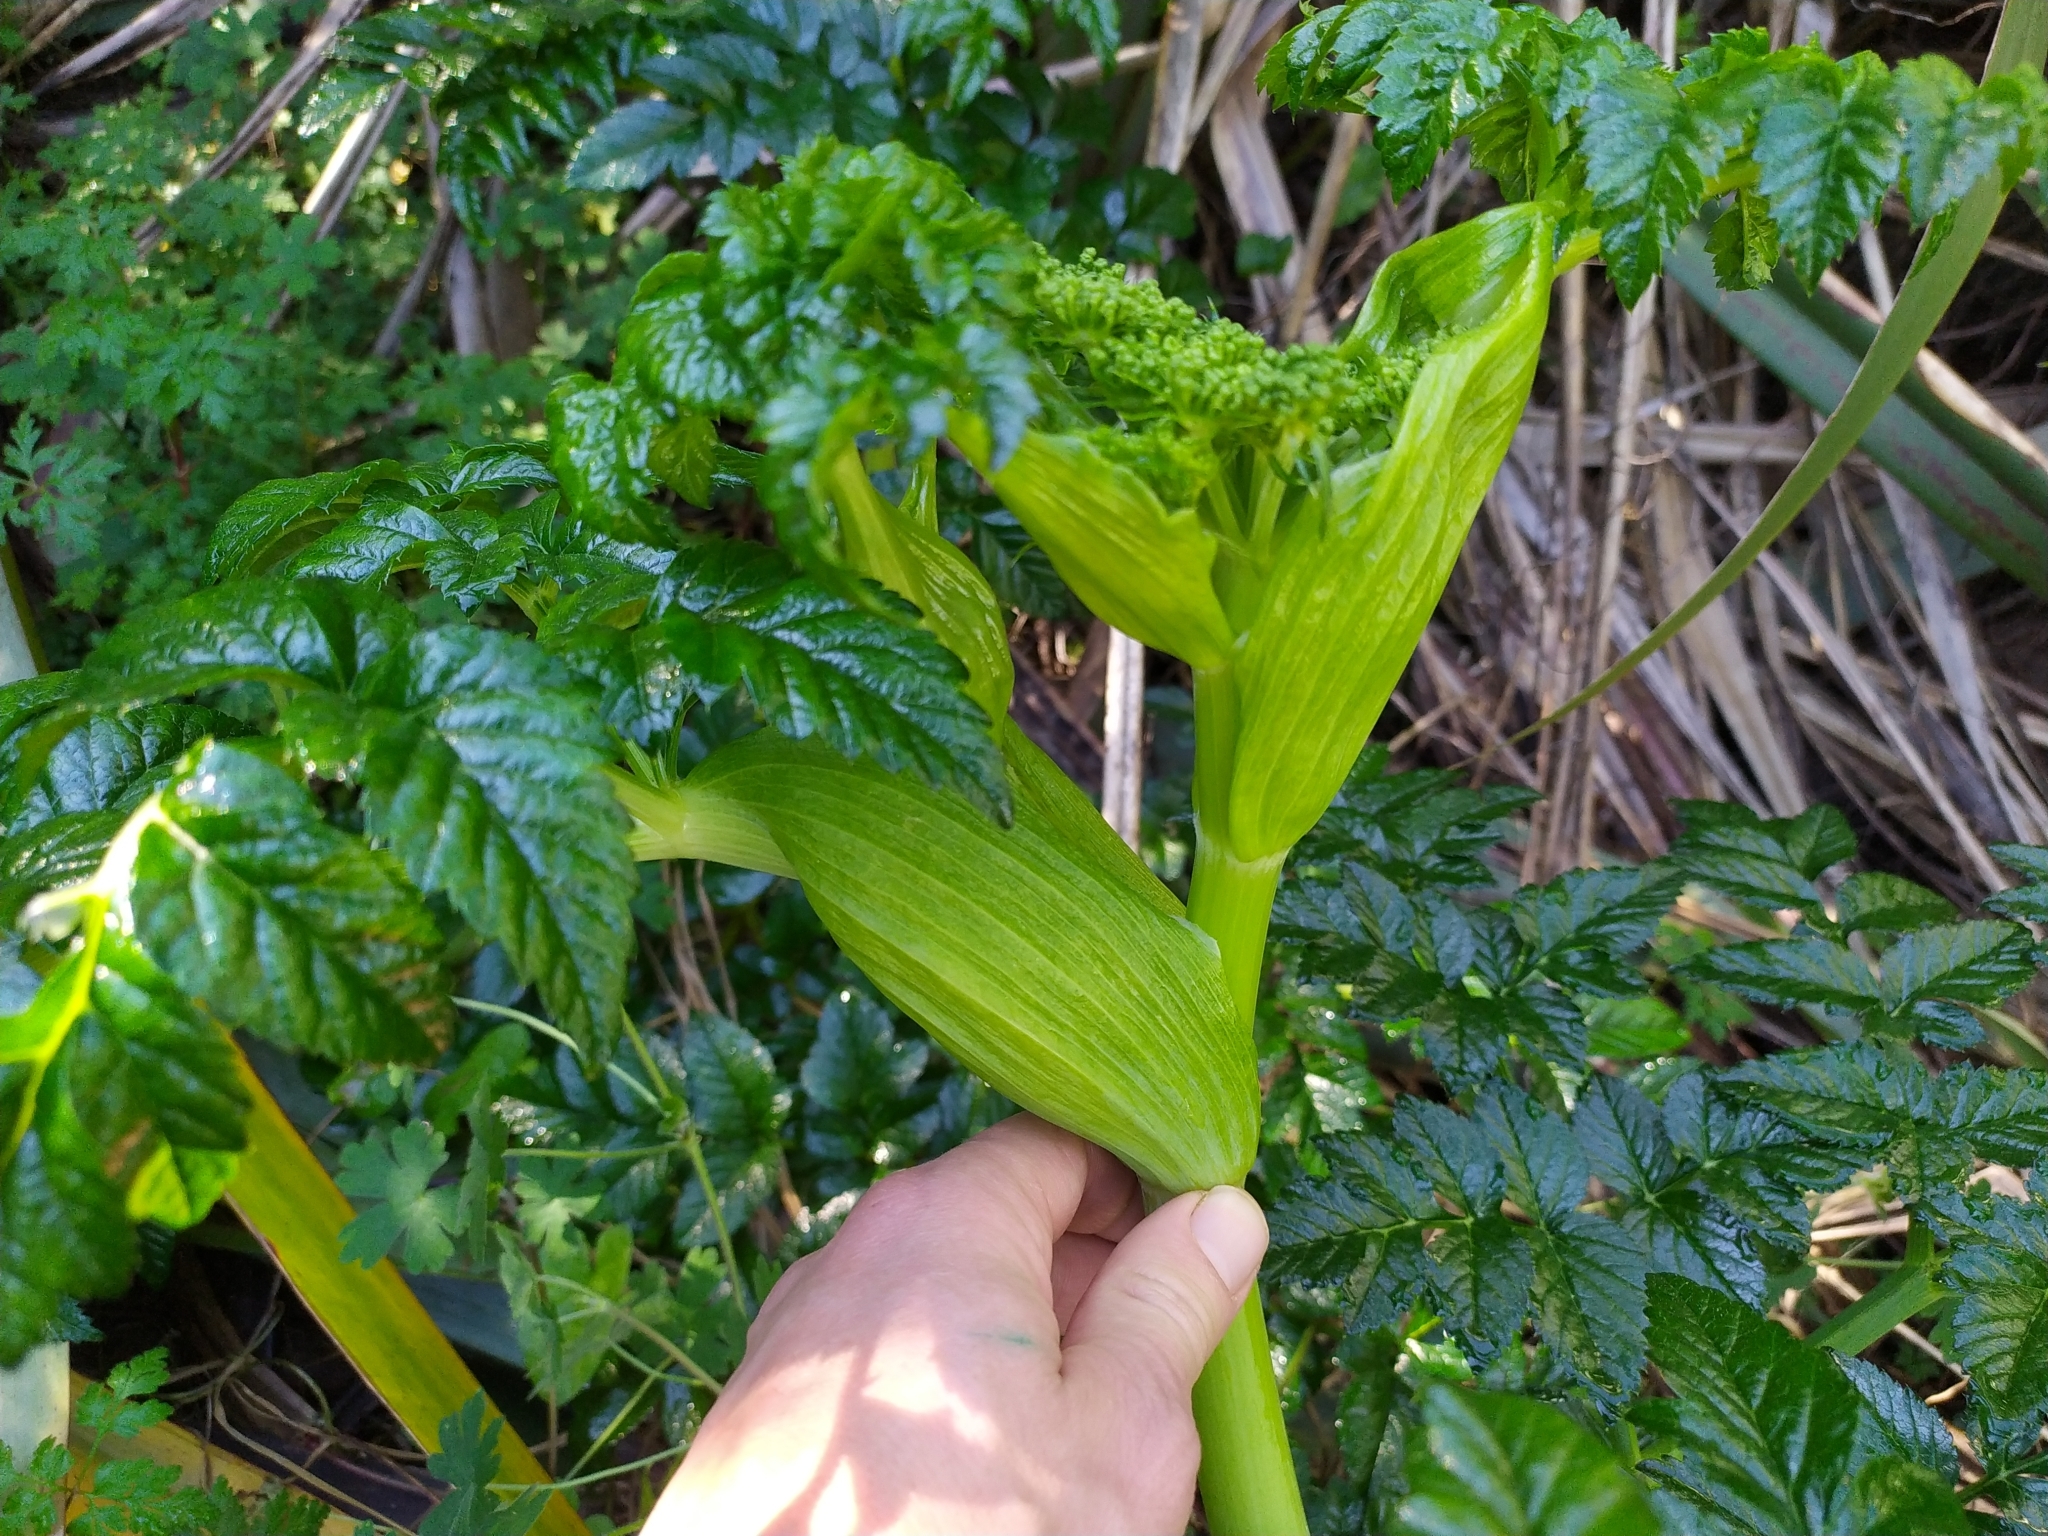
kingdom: Plantae
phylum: Tracheophyta
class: Magnoliopsida
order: Apiales
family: Apiaceae
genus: Angelica
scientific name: Angelica pachycarpa
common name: Portuguese angelica
